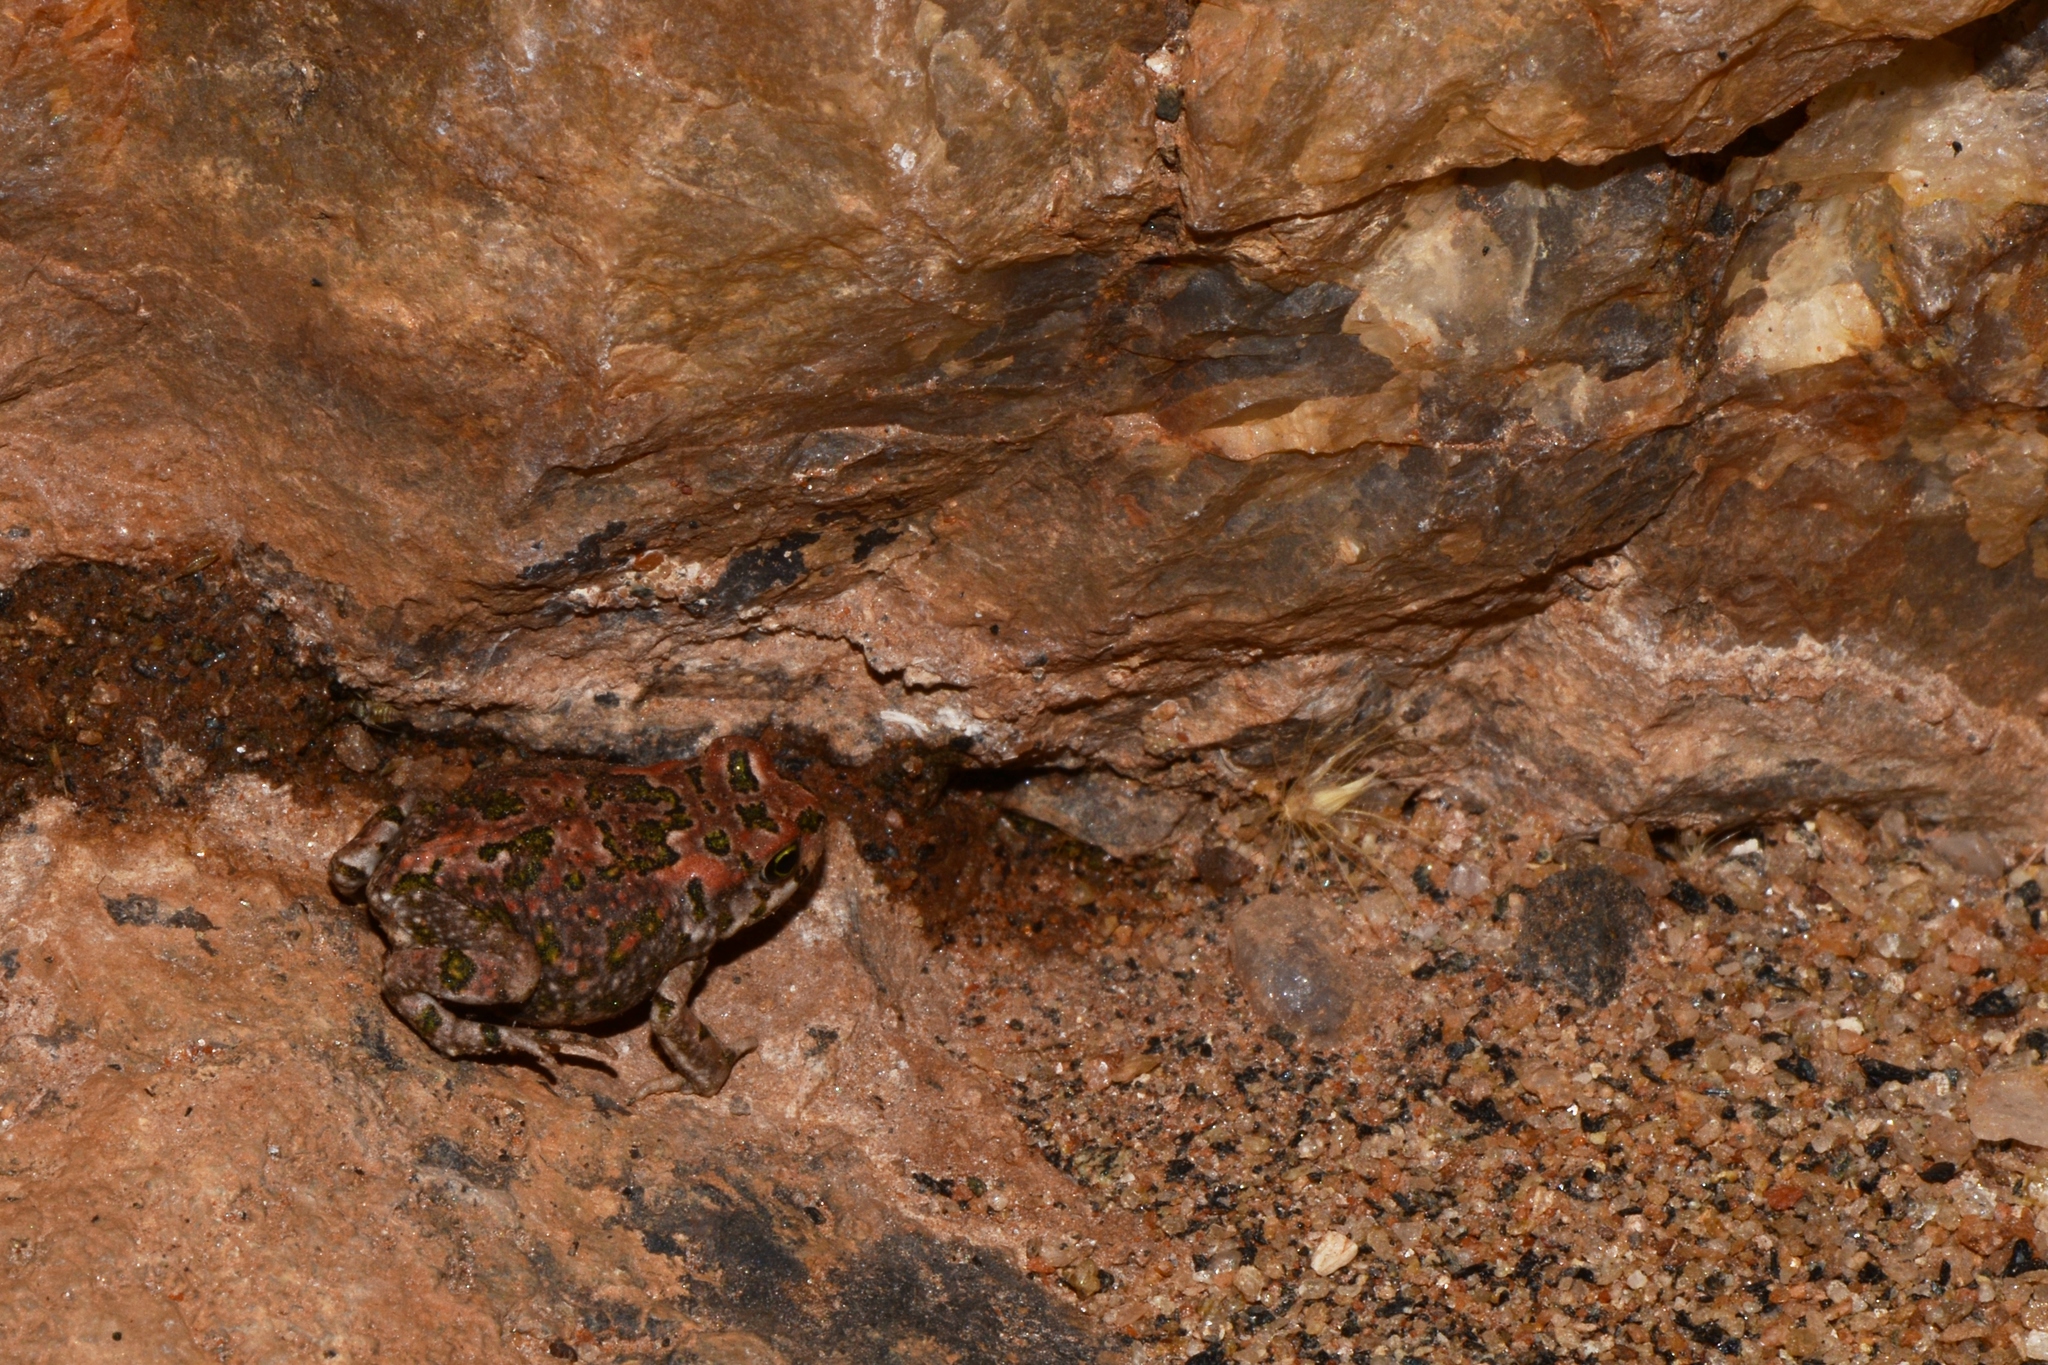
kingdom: Animalia
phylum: Chordata
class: Amphibia
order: Anura
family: Bufonidae
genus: Vandijkophrynus
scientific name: Vandijkophrynus robinsoni
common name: Paradise toad
